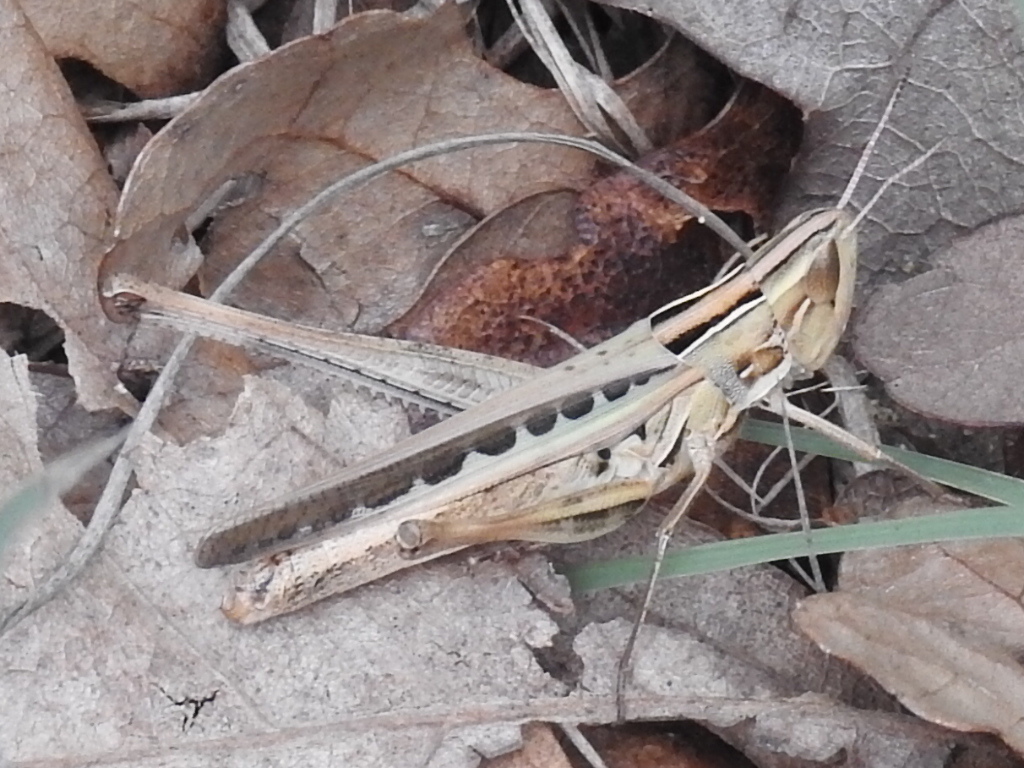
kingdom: Animalia
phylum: Arthropoda
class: Insecta
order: Orthoptera
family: Acrididae
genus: Syrbula
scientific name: Syrbula admirabilis
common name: Handsome grasshopper
